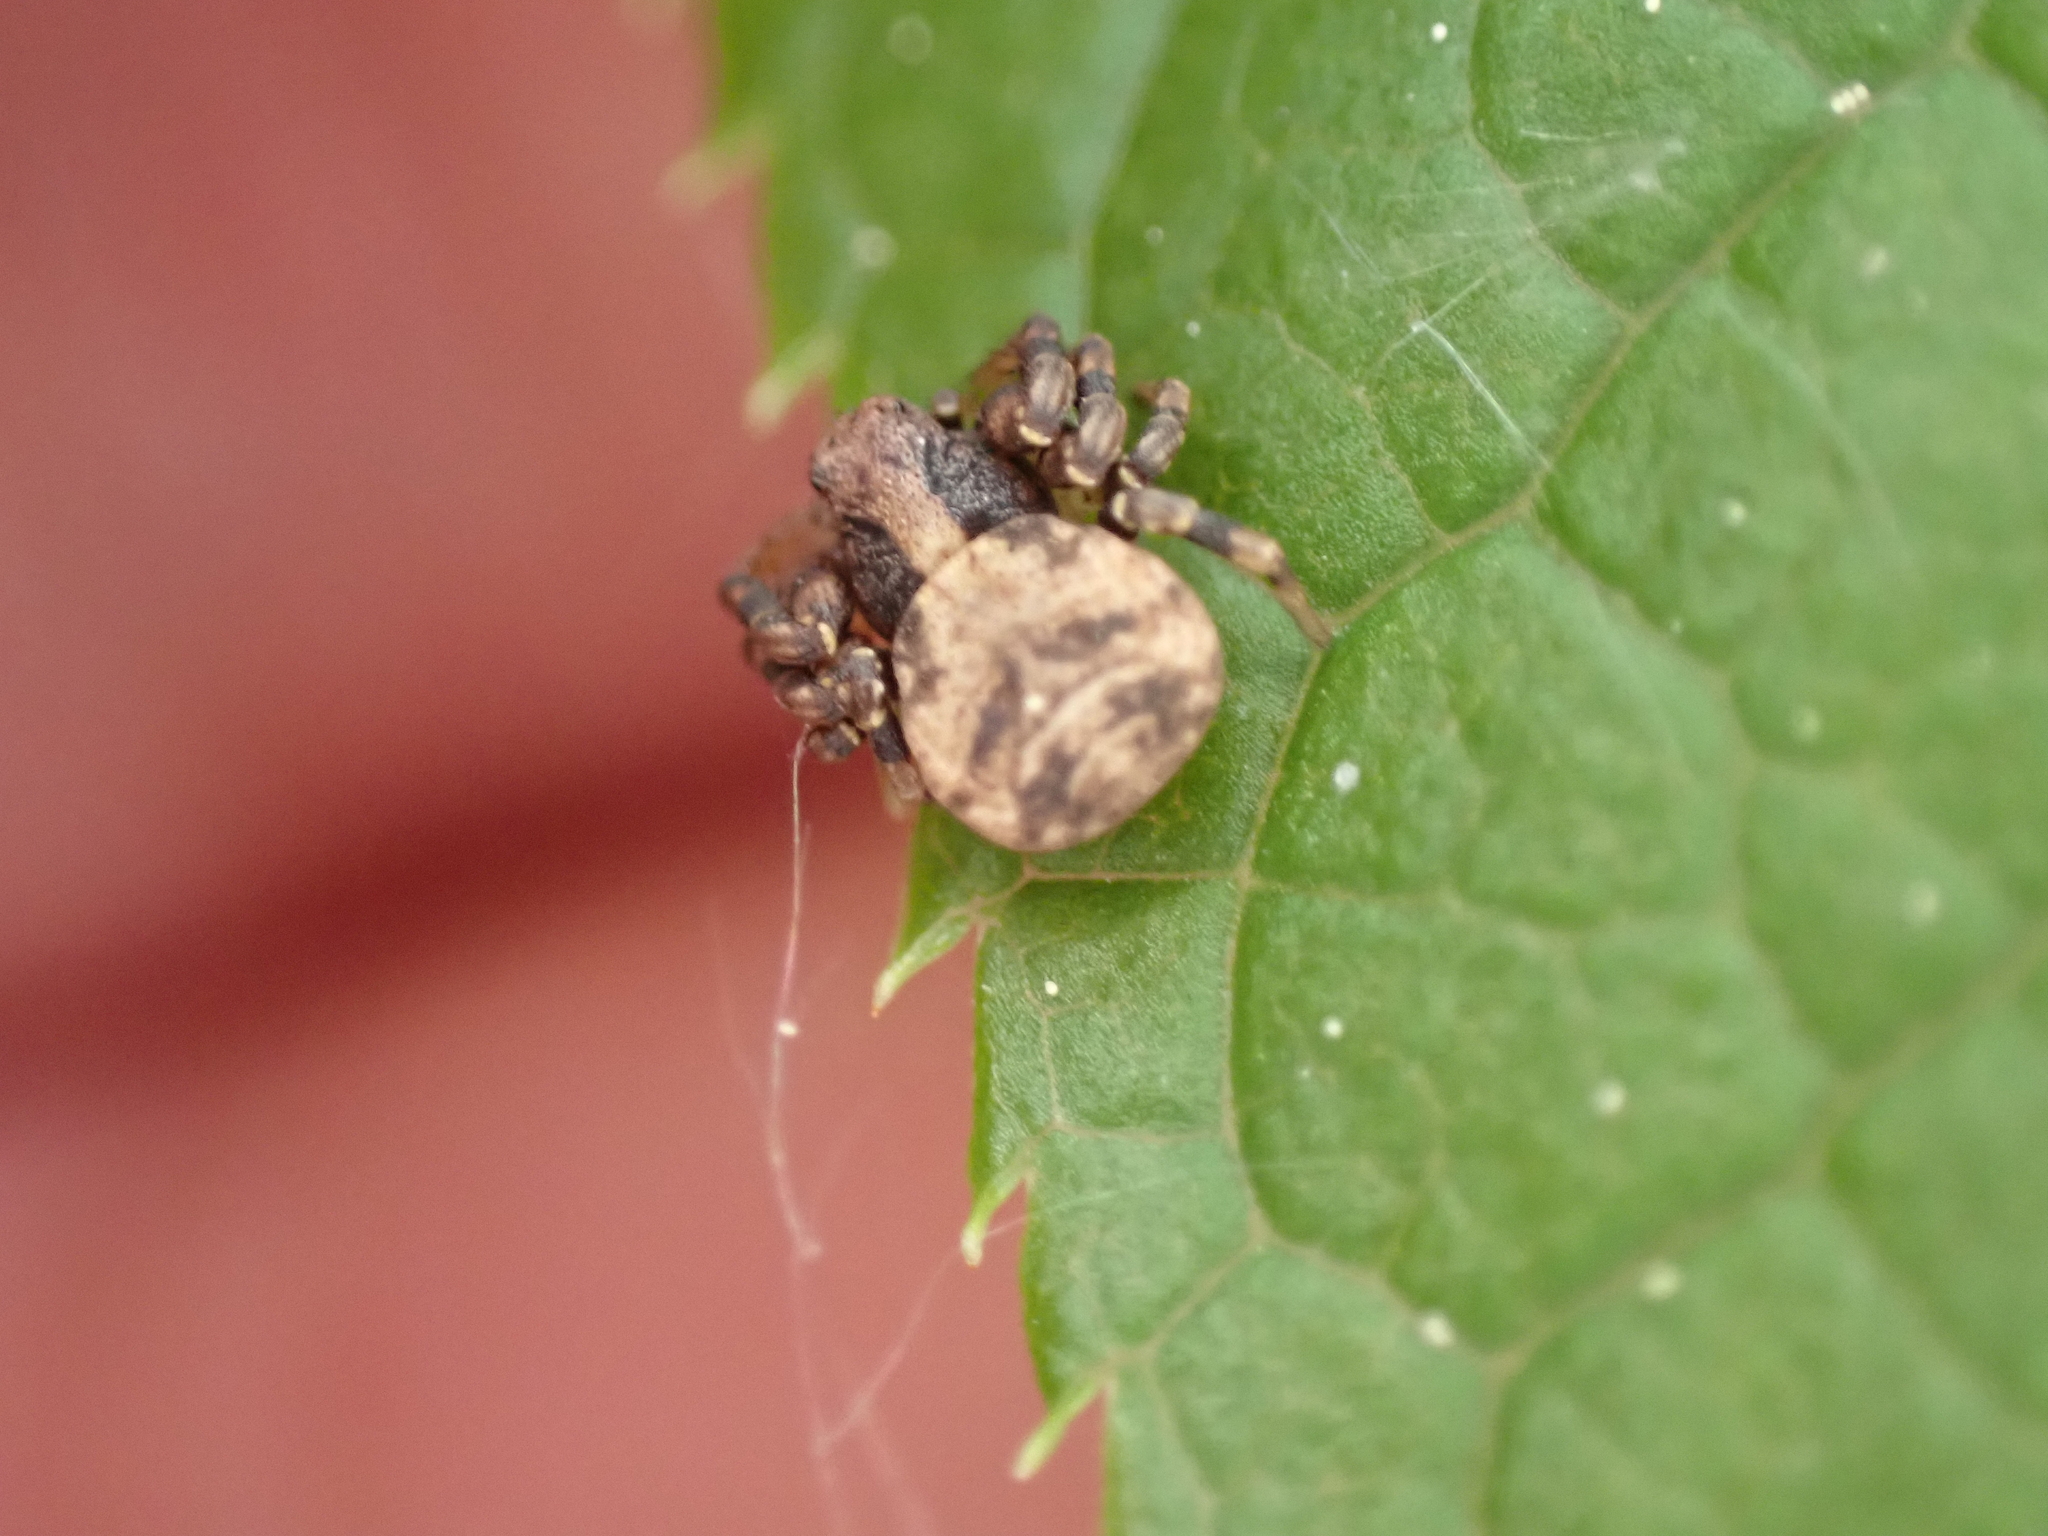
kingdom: Animalia
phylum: Arthropoda
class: Arachnida
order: Araneae
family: Thomisidae
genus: Ozyptila
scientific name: Ozyptila
